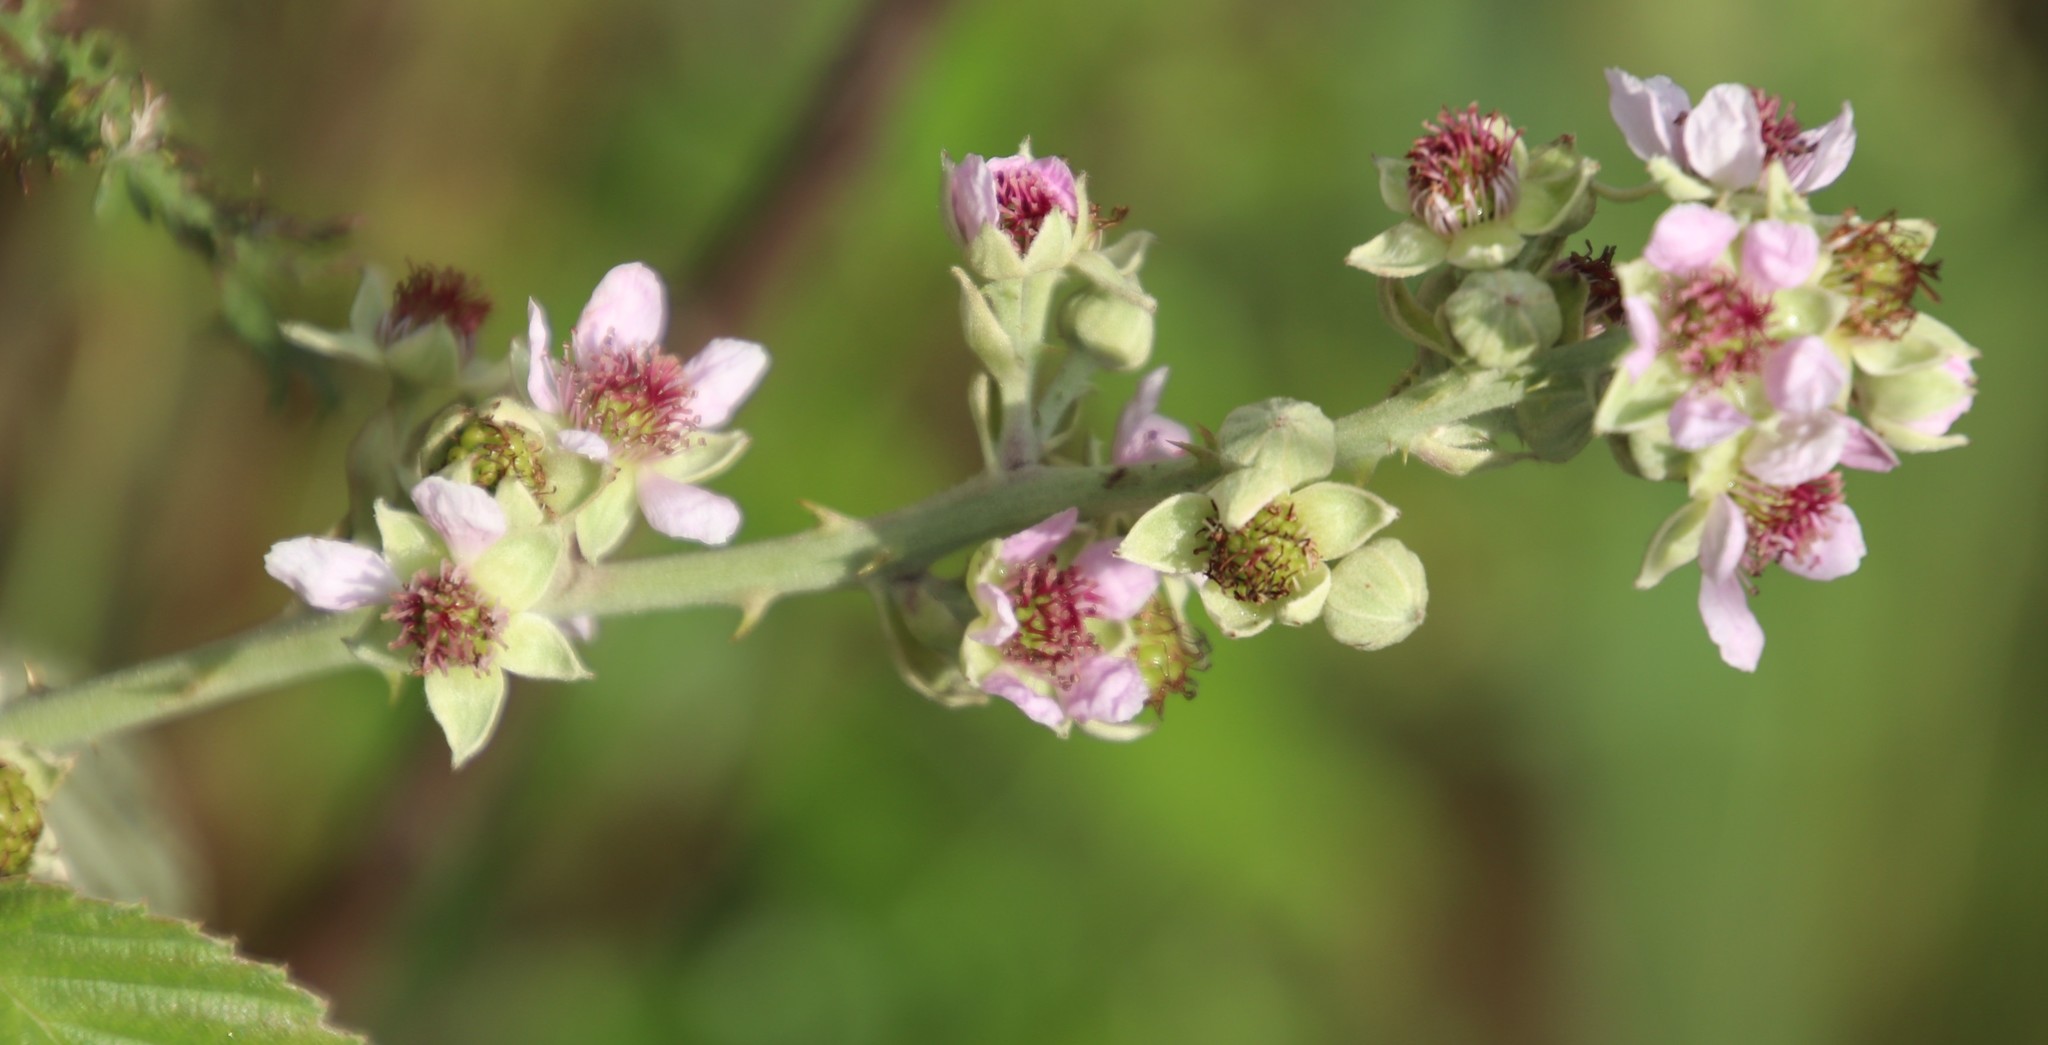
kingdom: Plantae
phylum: Tracheophyta
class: Magnoliopsida
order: Rosales
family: Rosaceae
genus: Rubus
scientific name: Rubus rigidus
